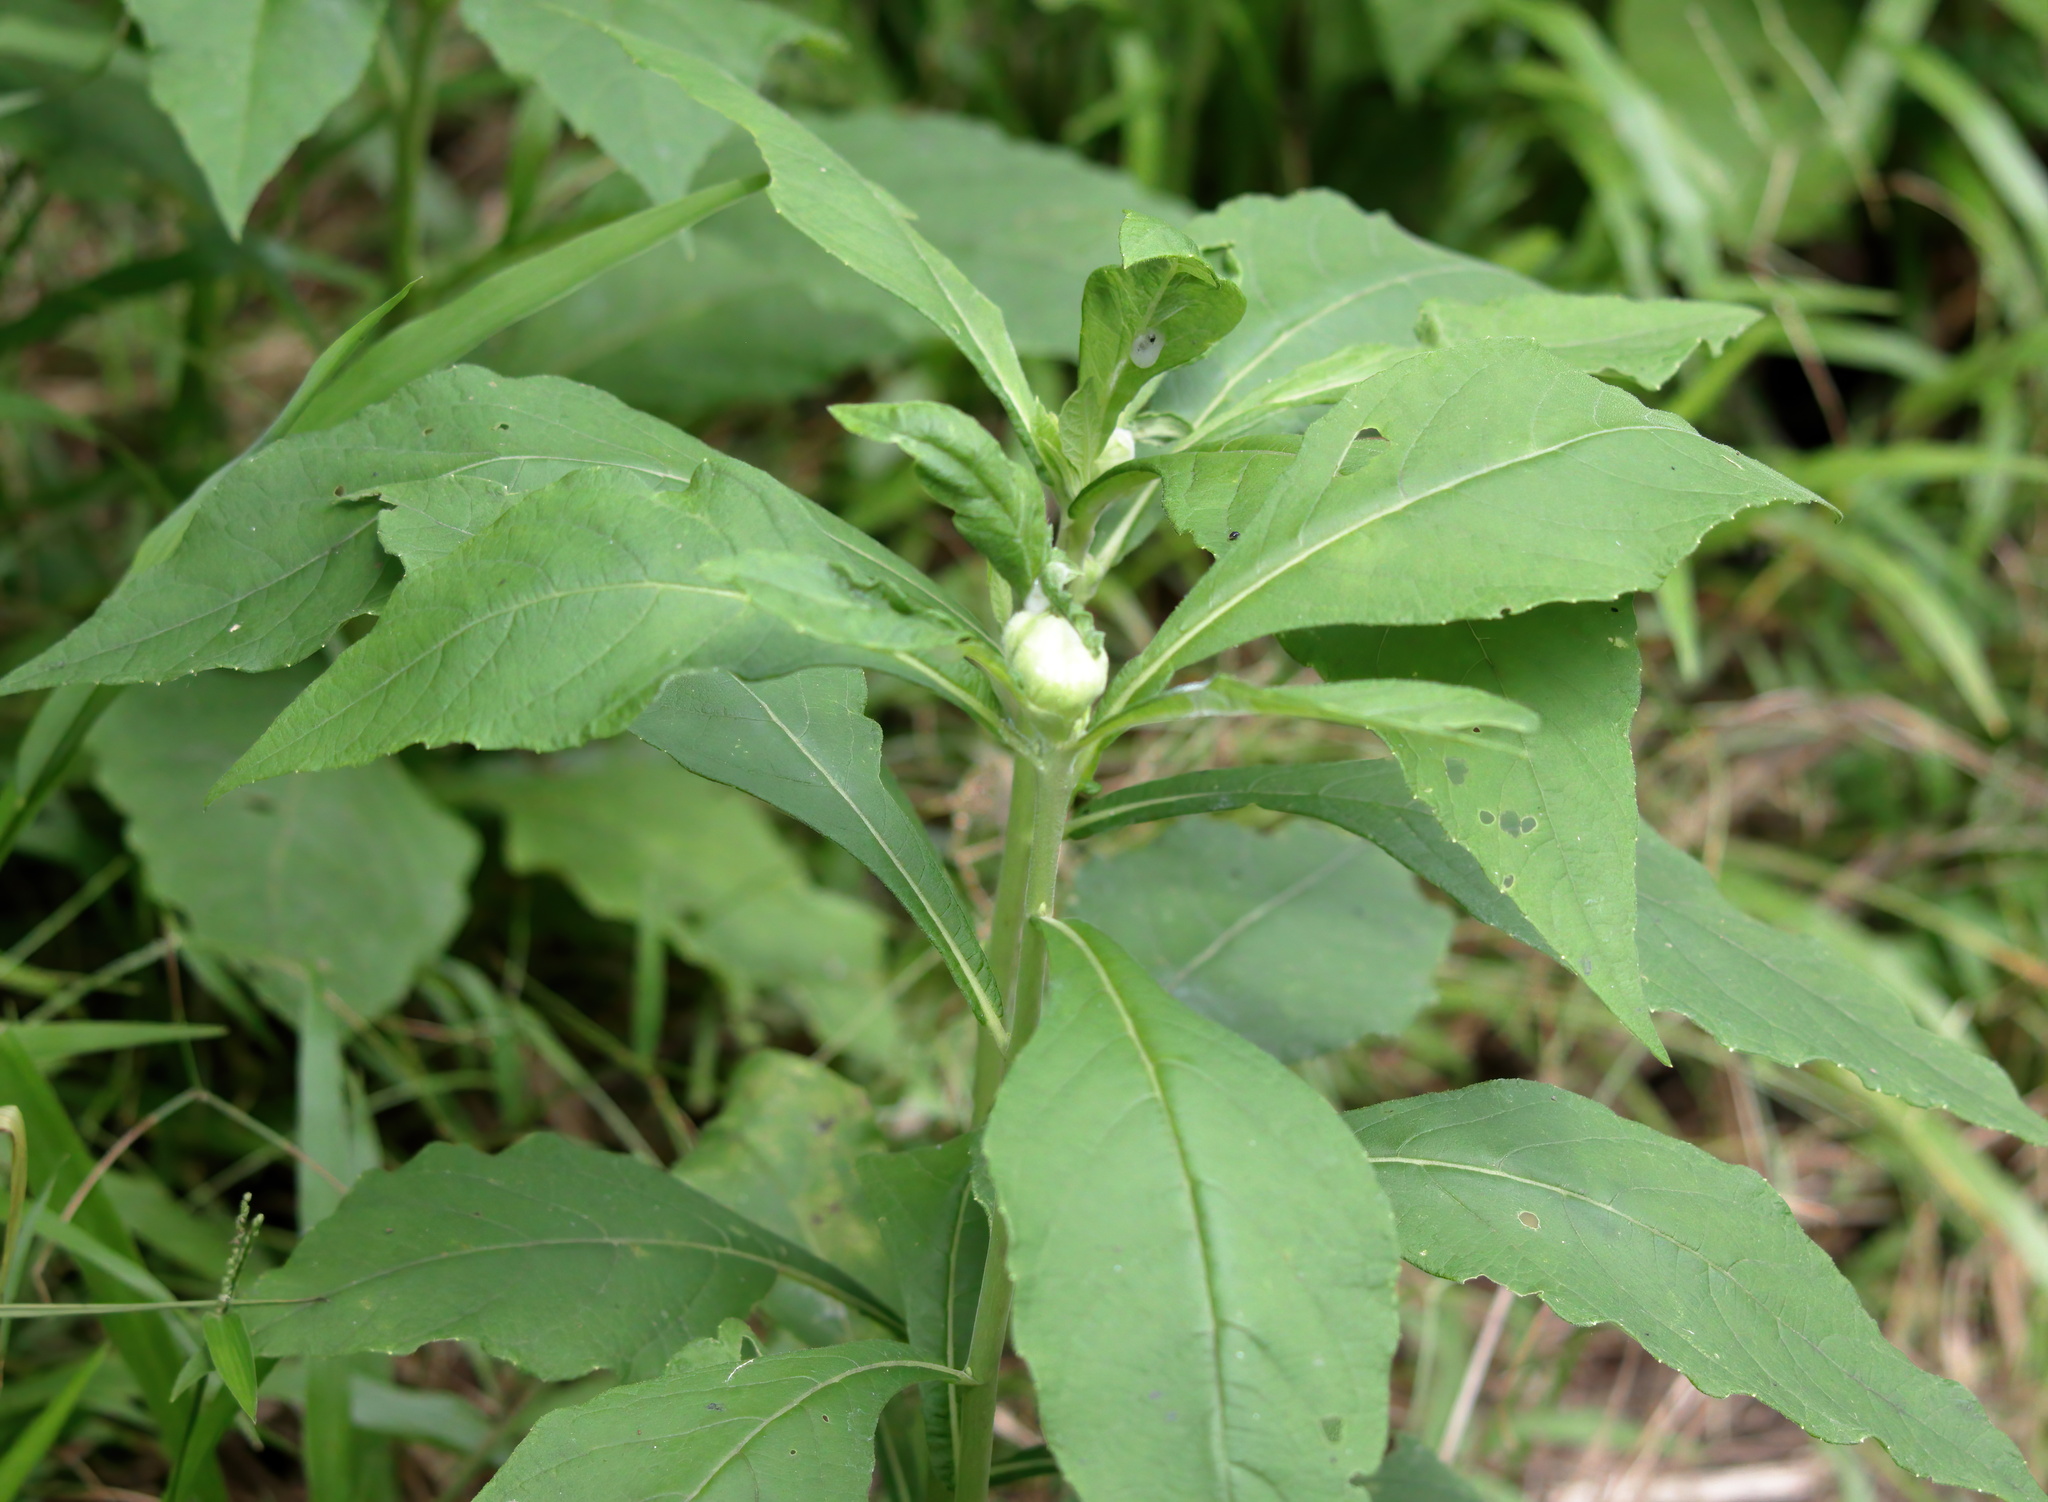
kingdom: Plantae
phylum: Tracheophyta
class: Magnoliopsida
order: Asterales
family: Asteraceae
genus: Verbesina
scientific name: Verbesina virginica
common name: Frostweed
